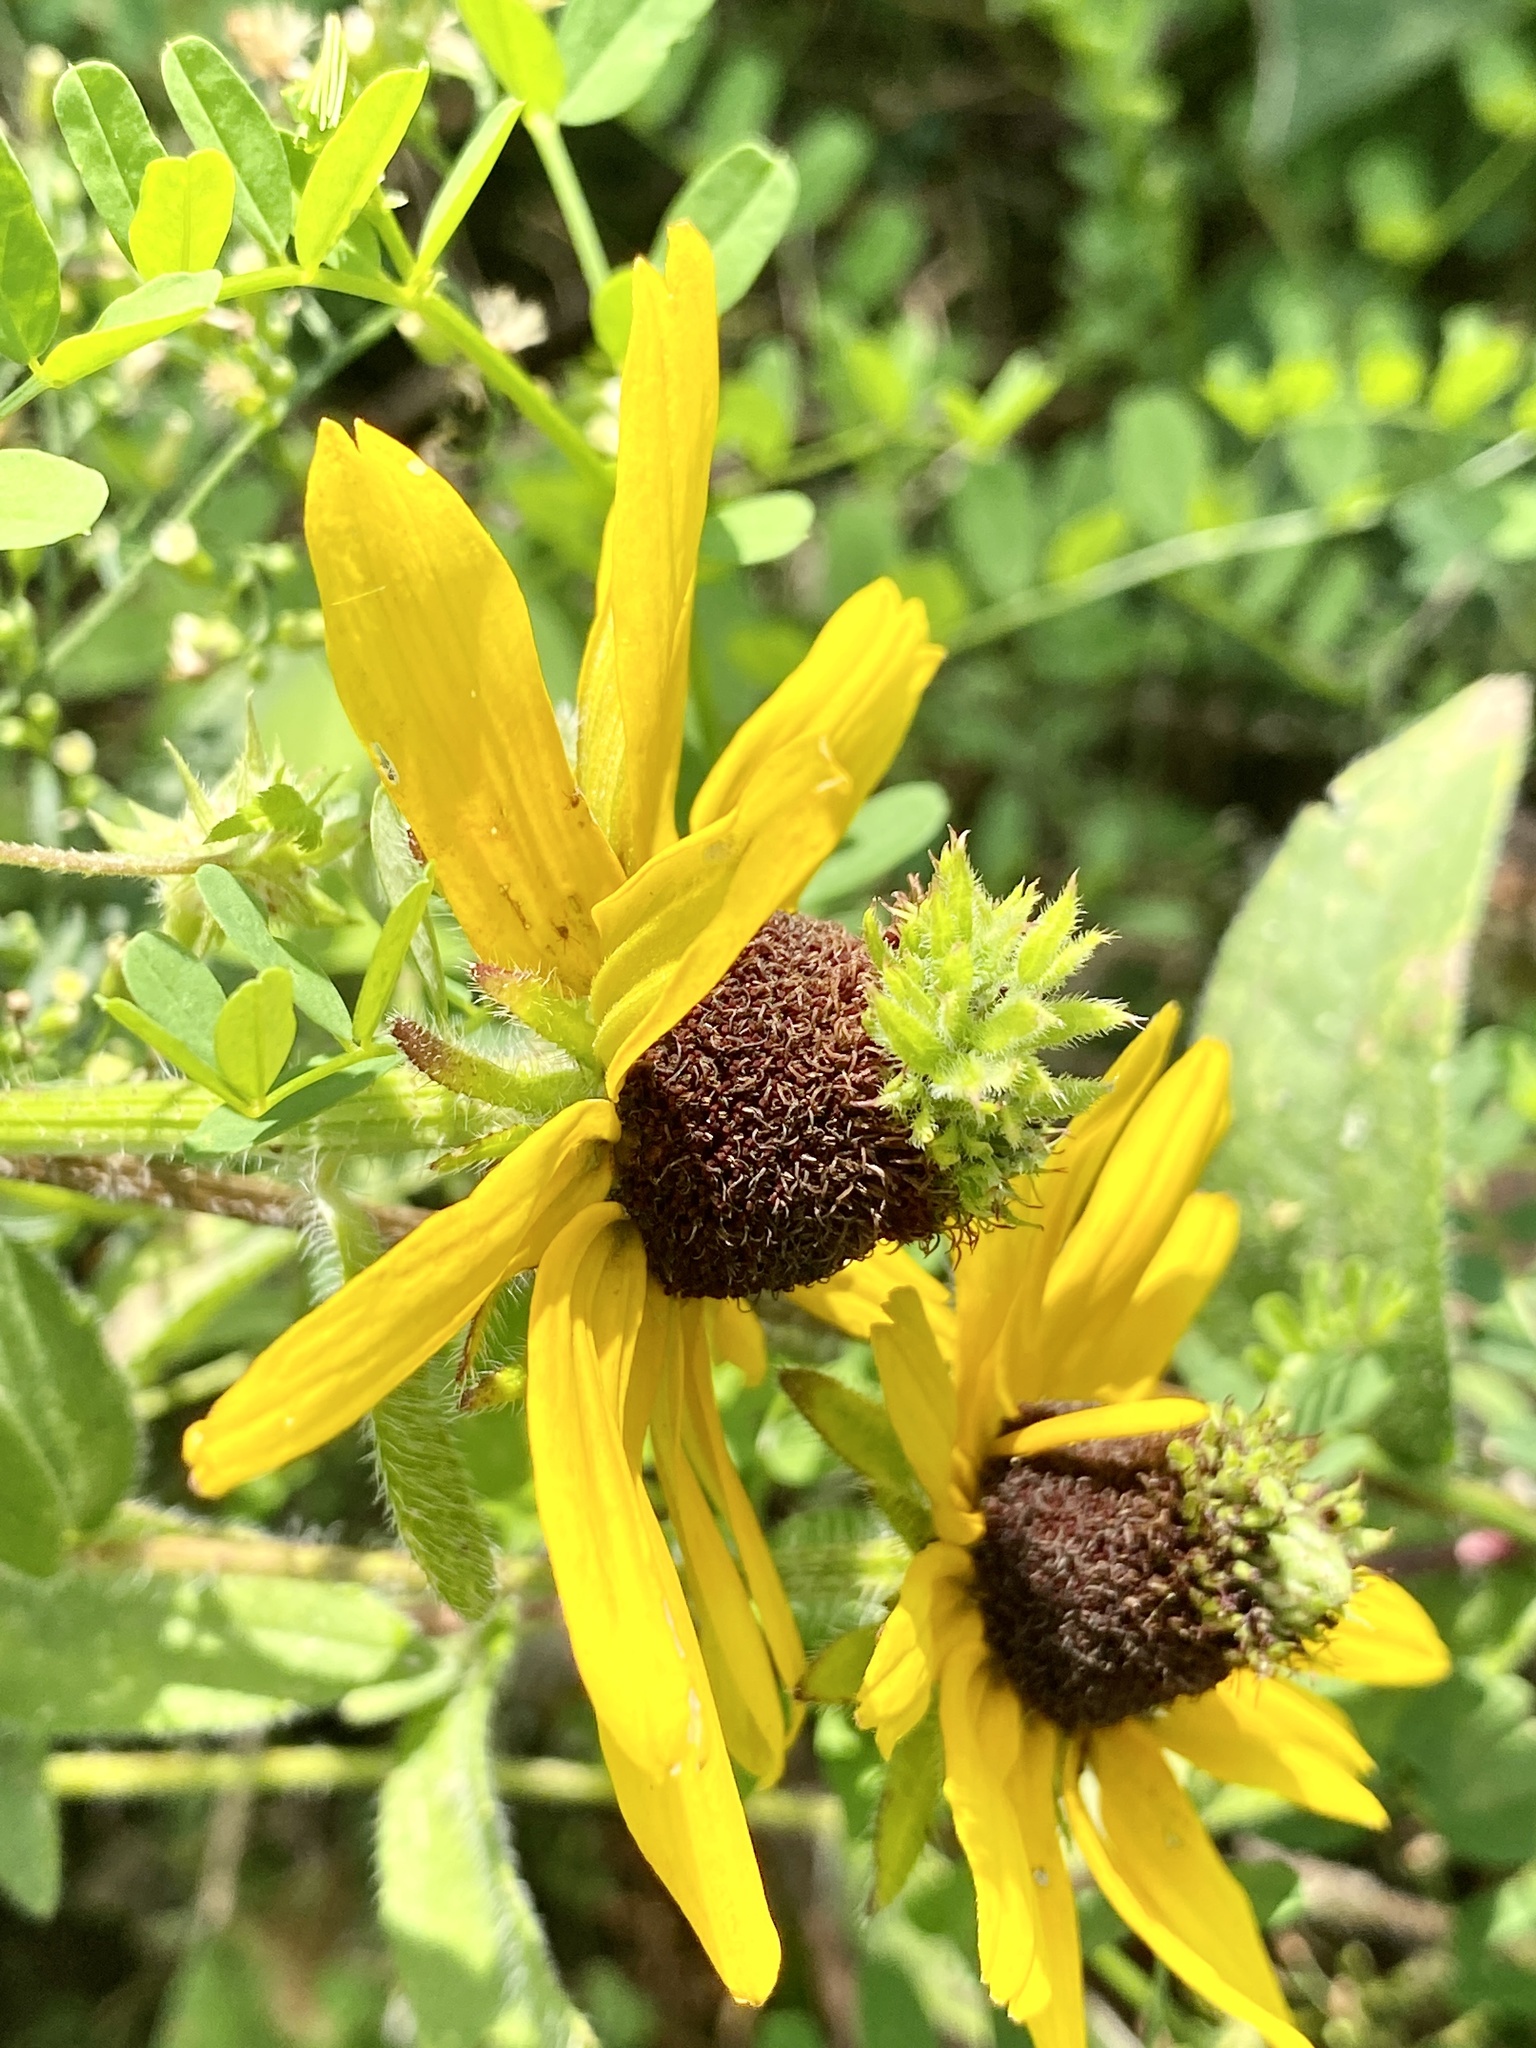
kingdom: Plantae
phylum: Tracheophyta
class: Magnoliopsida
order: Asterales
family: Asteraceae
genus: Rudbeckia
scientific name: Rudbeckia hirta
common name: Black-eyed-susan
